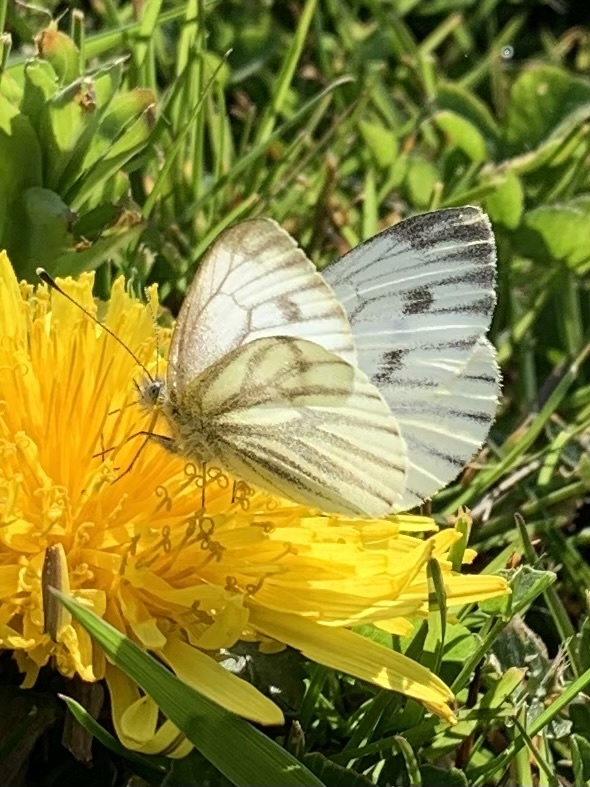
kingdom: Animalia
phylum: Arthropoda
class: Insecta
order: Lepidoptera
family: Pieridae
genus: Pieris
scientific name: Pieris napi
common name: Green-veined white
